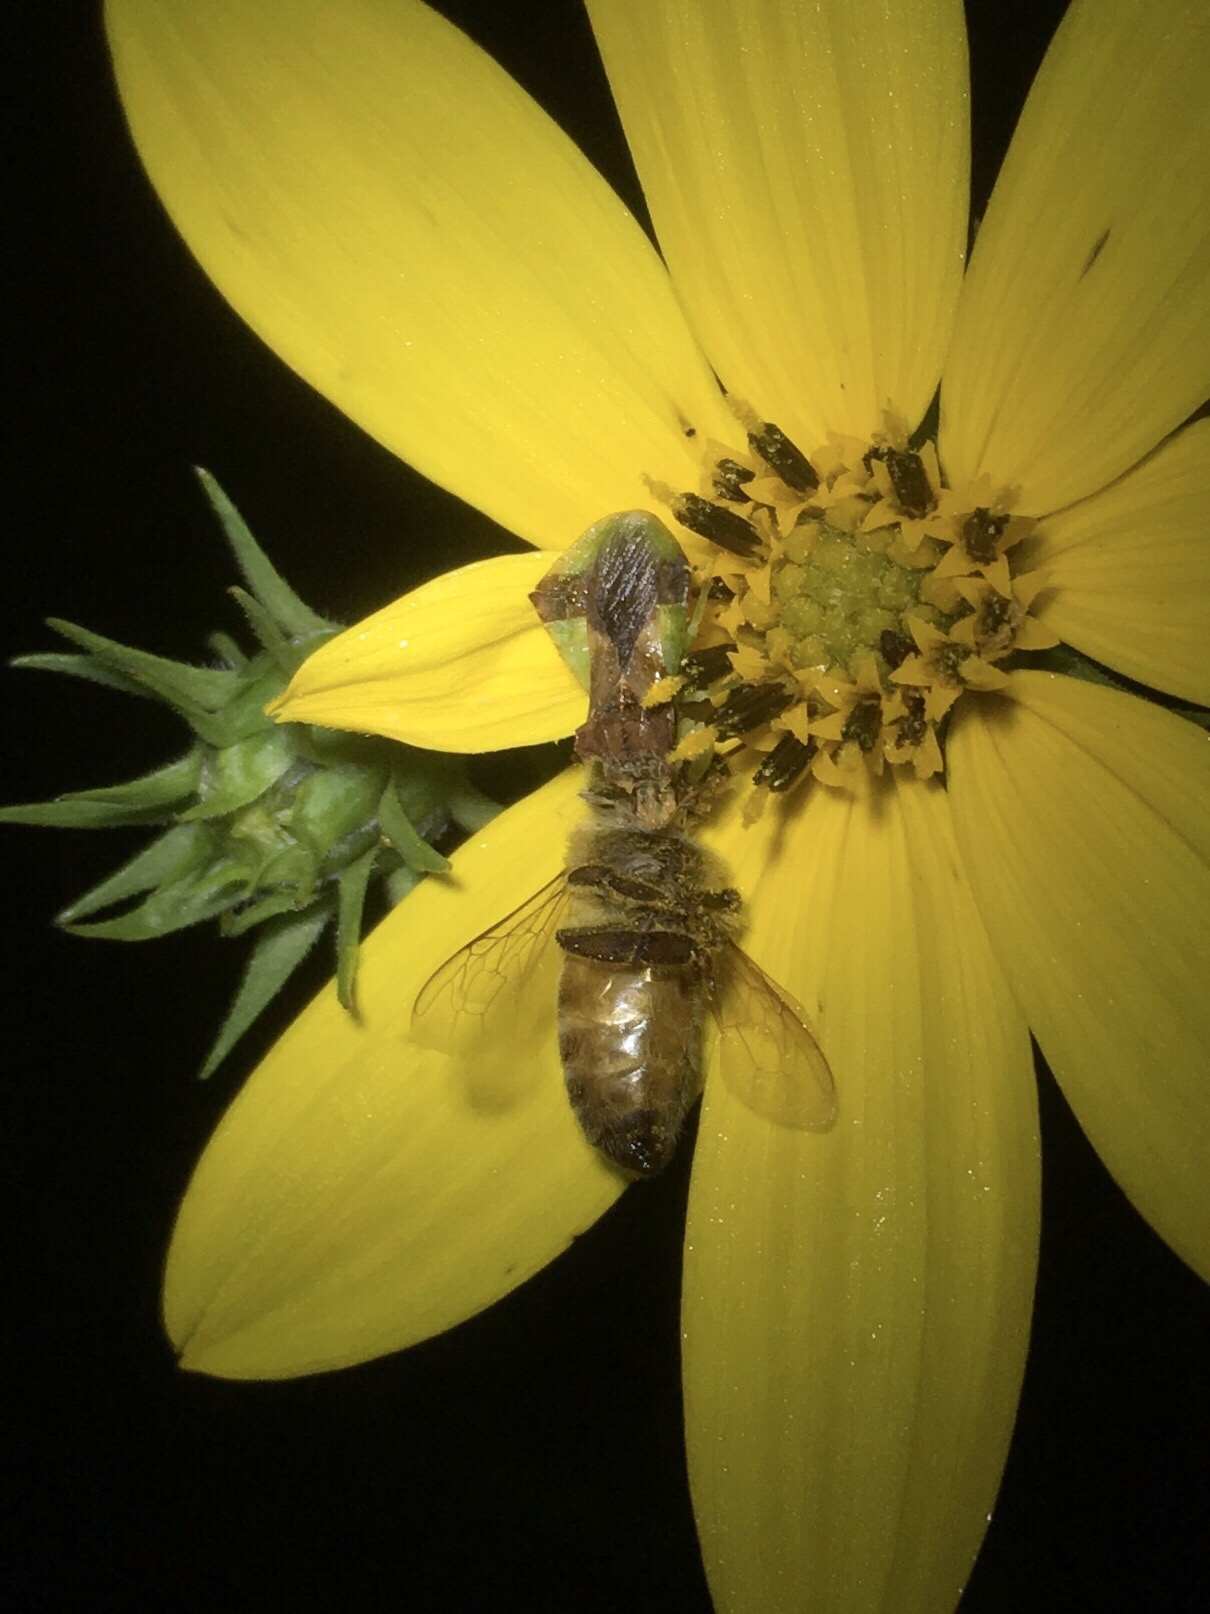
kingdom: Animalia
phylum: Arthropoda
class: Insecta
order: Hymenoptera
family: Apidae
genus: Apis
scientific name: Apis mellifera
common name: Honey bee
